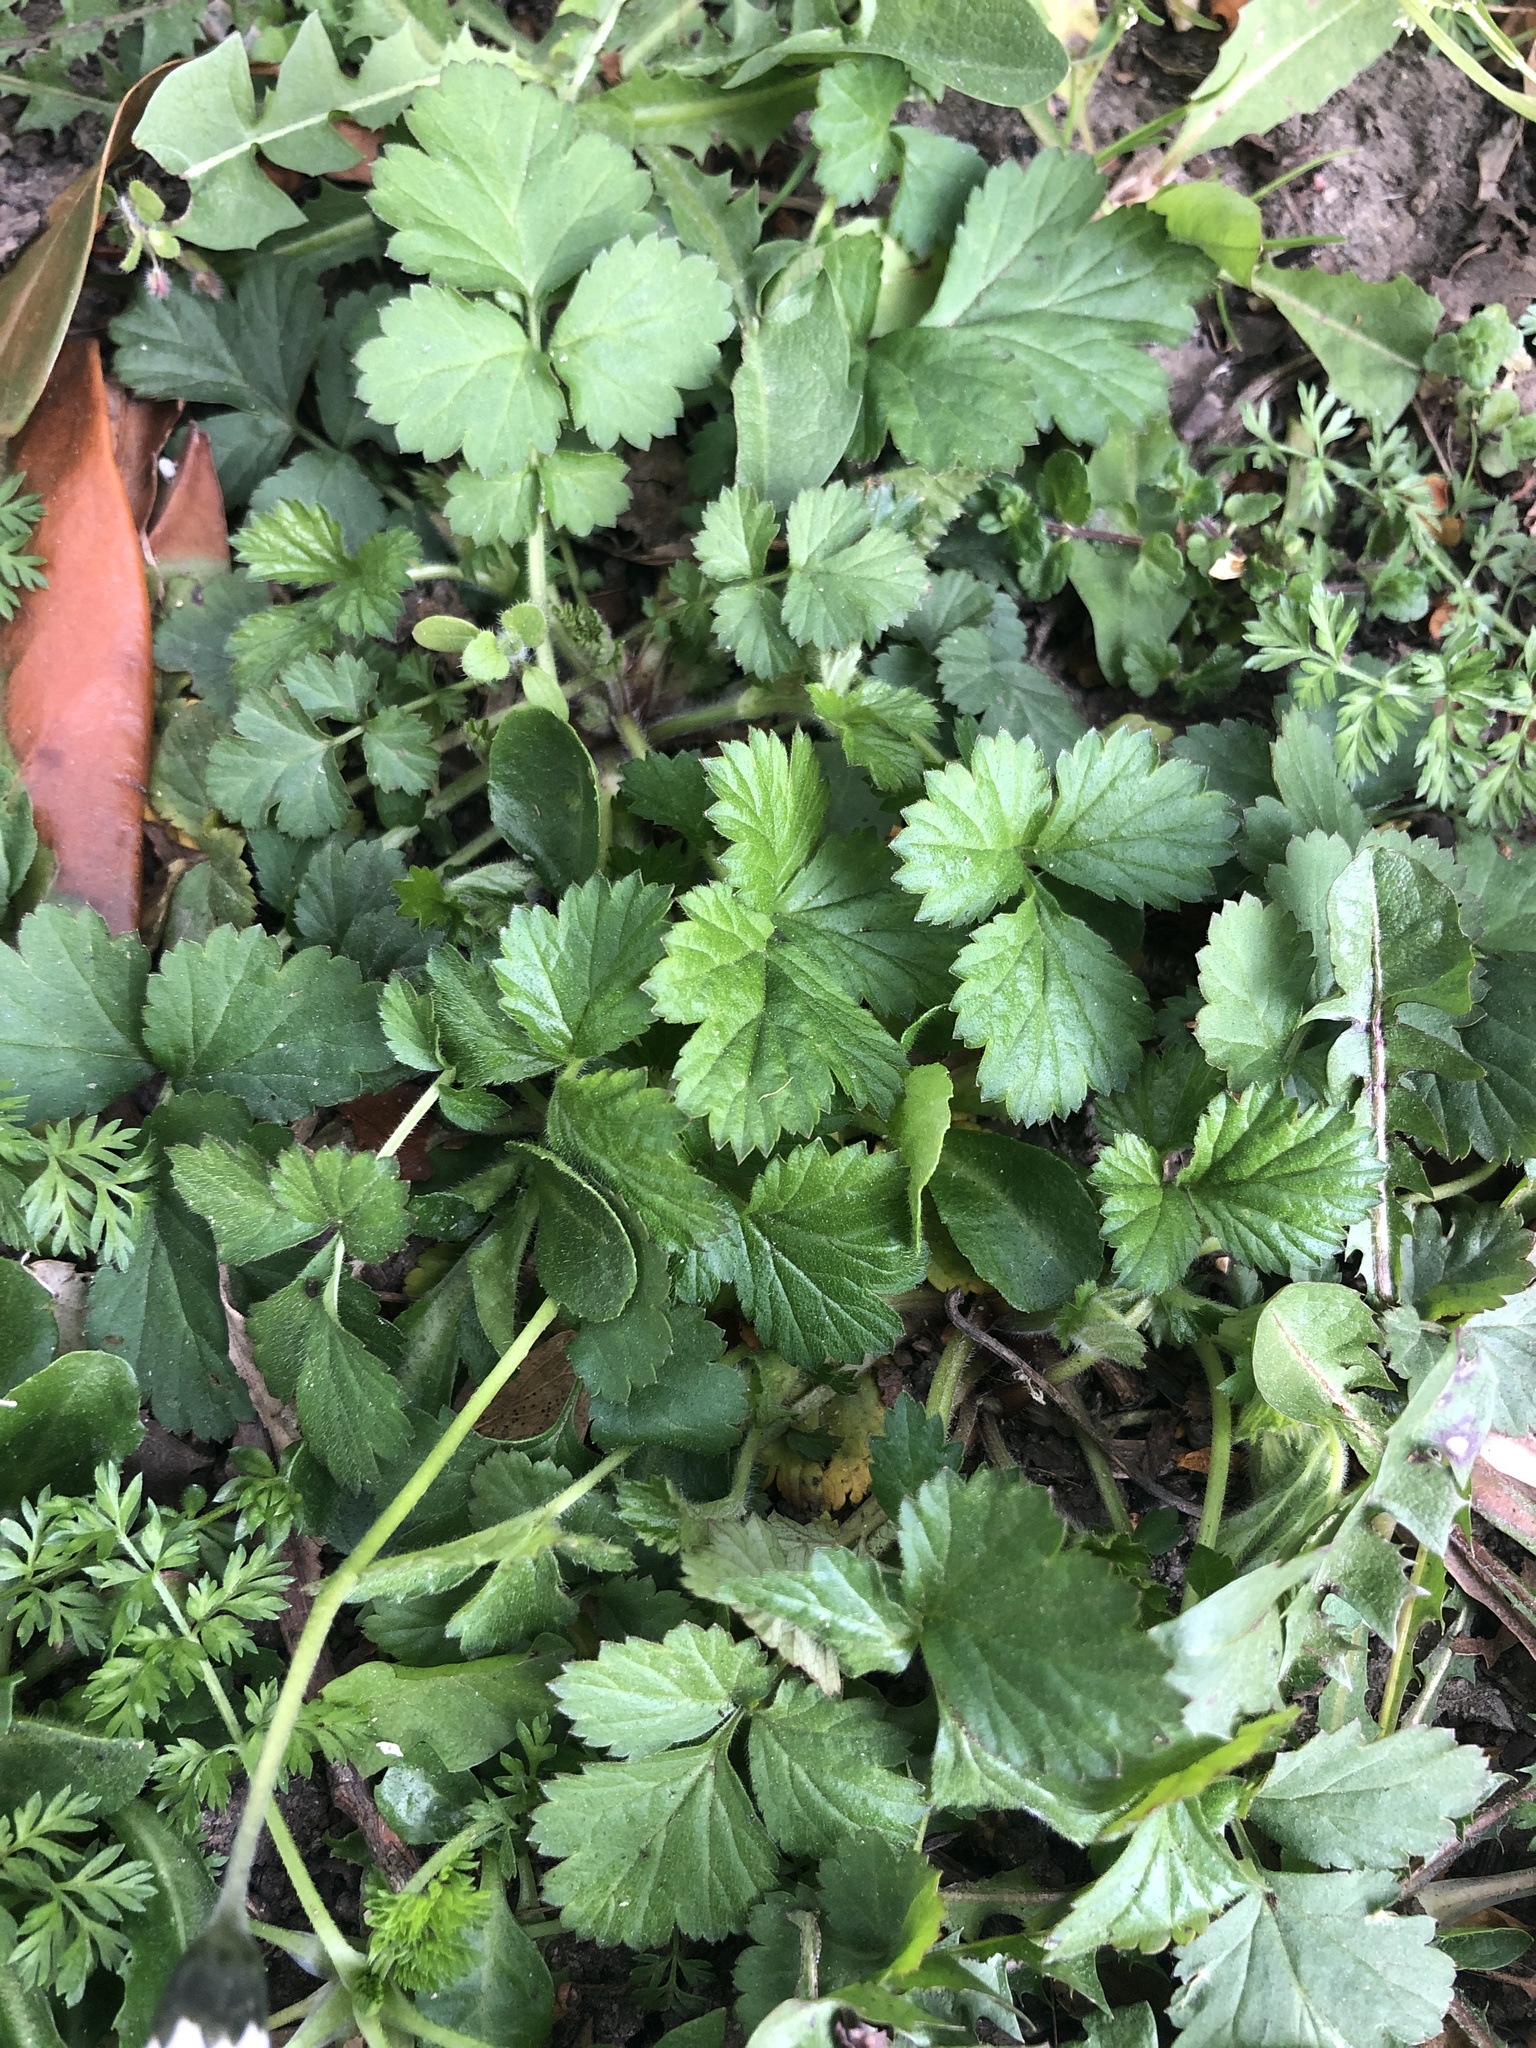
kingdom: Plantae
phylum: Tracheophyta
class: Magnoliopsida
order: Rosales
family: Rosaceae
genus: Geum
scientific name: Geum urbanum
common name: Wood avens
